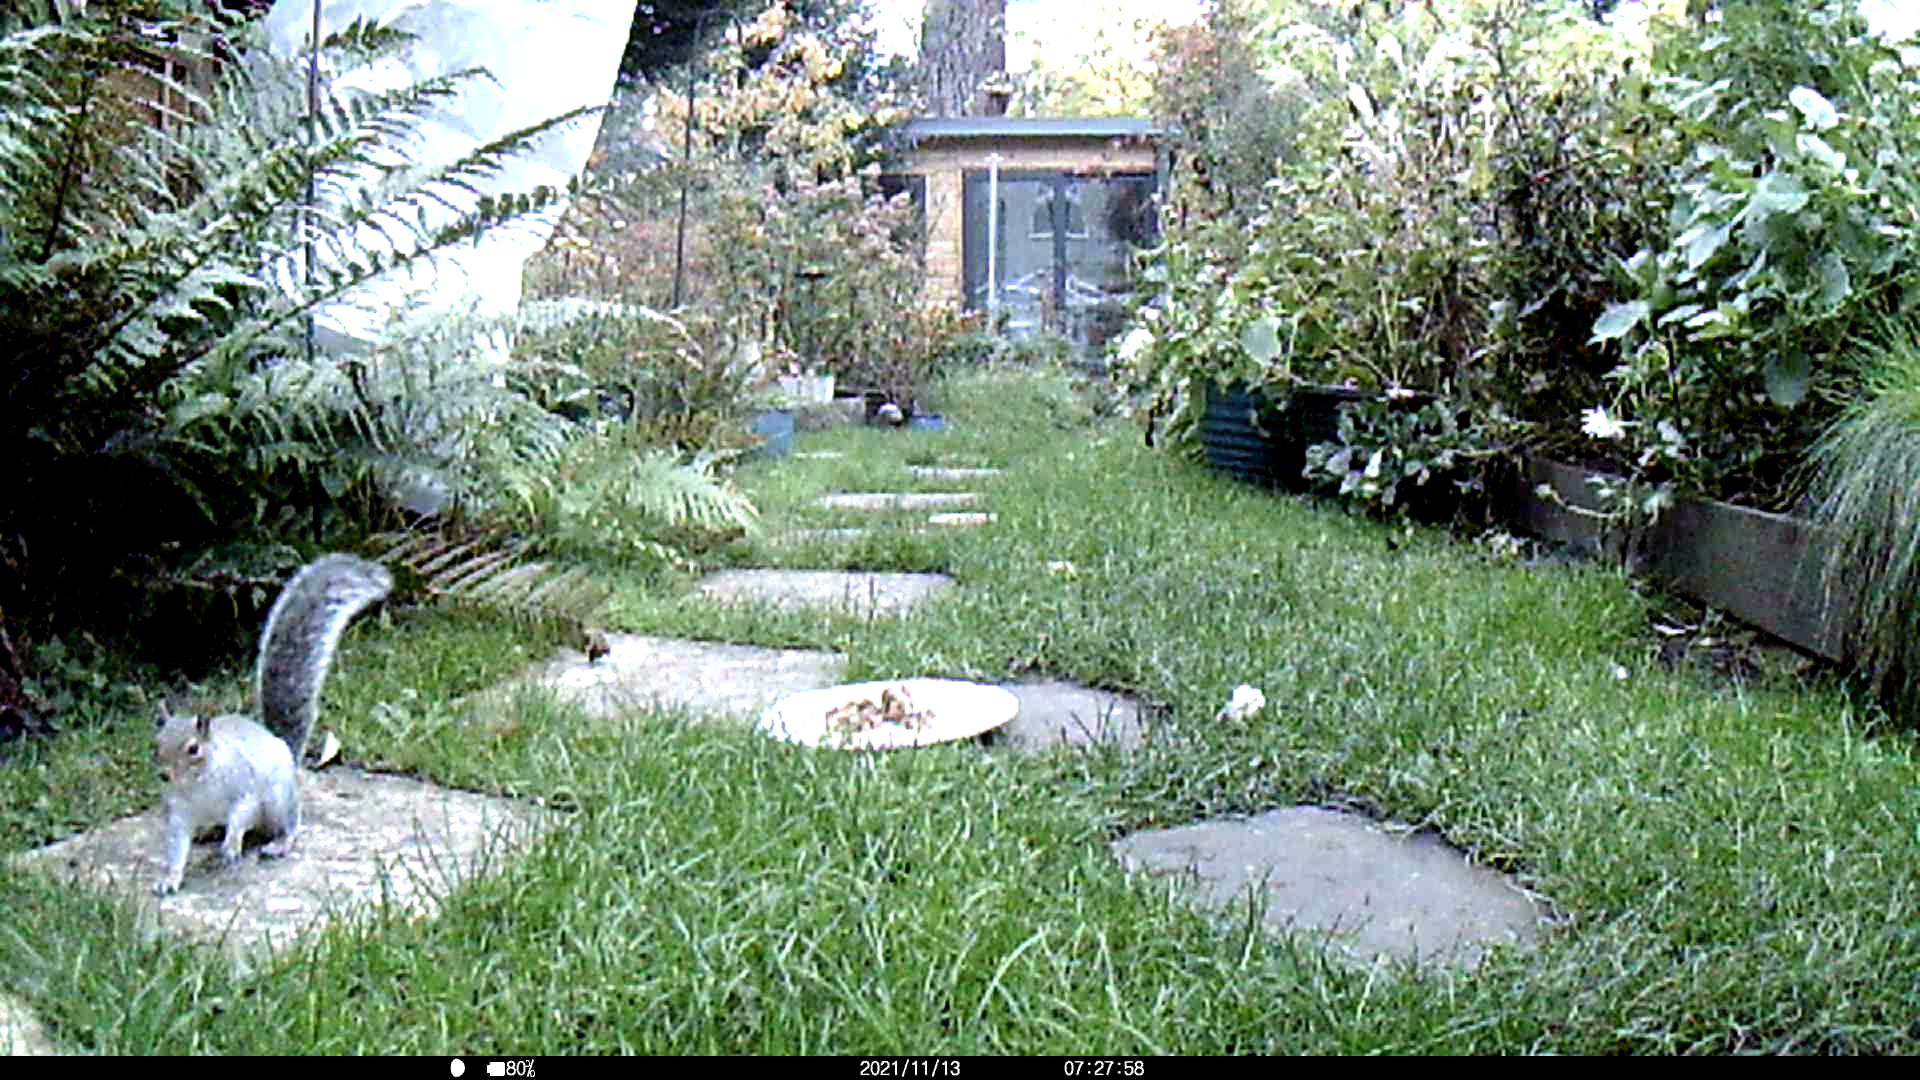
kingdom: Animalia
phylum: Chordata
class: Mammalia
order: Rodentia
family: Sciuridae
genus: Sciurus
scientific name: Sciurus carolinensis
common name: Eastern gray squirrel
